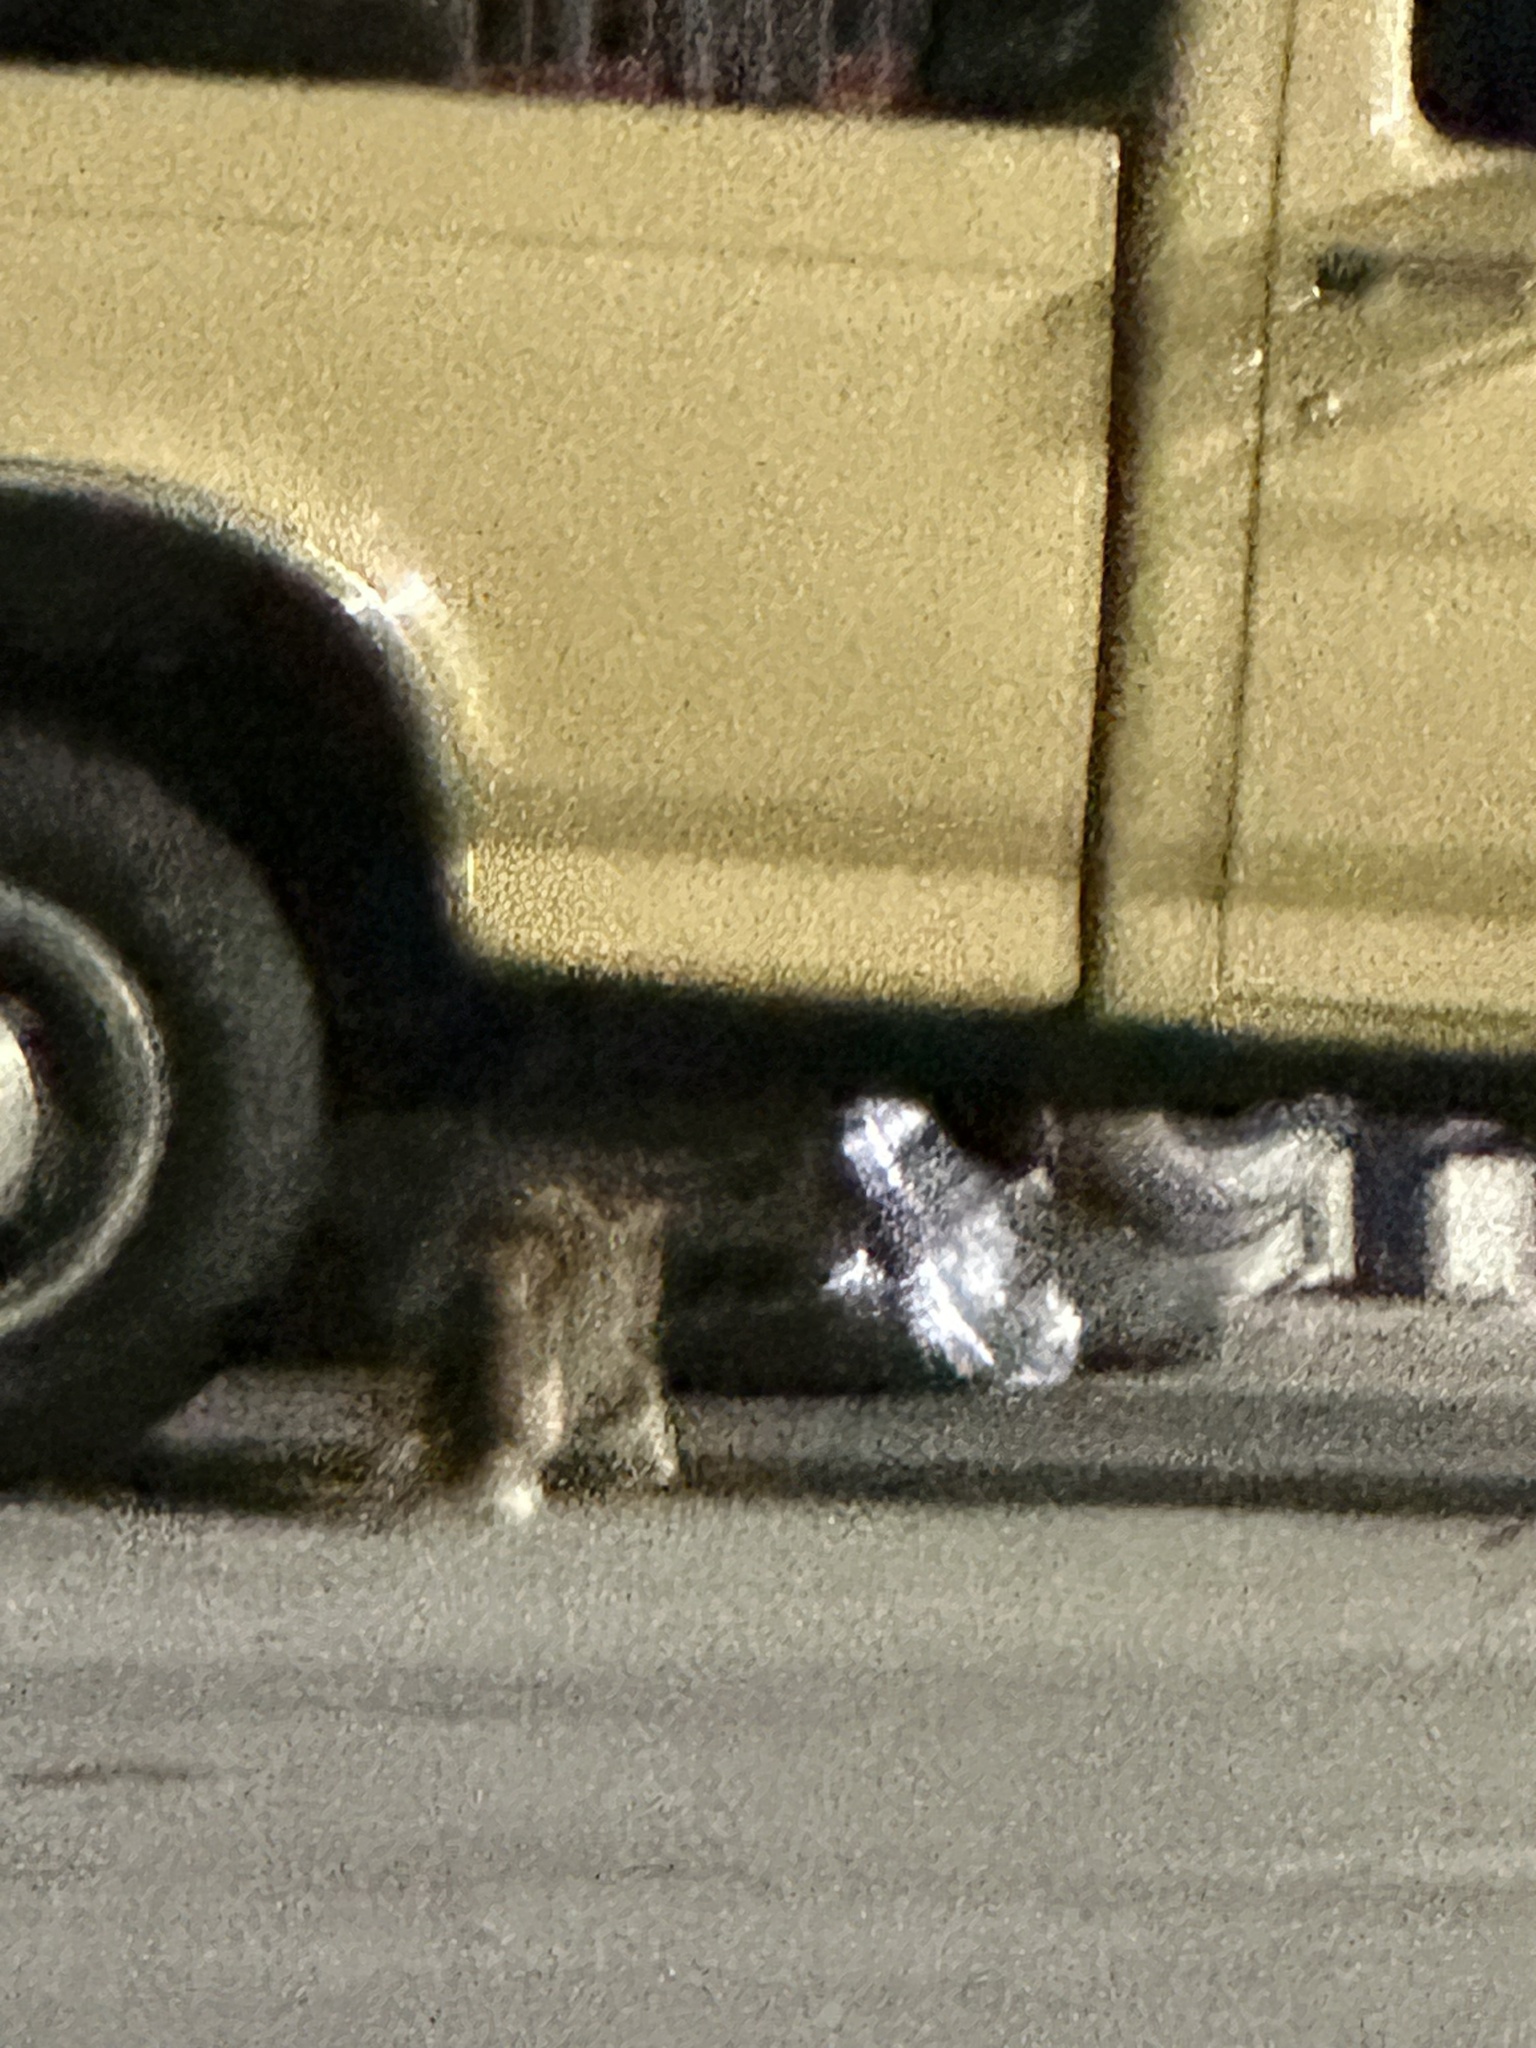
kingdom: Animalia
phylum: Chordata
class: Mammalia
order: Carnivora
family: Felidae
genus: Felis
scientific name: Felis catus
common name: Domestic cat
